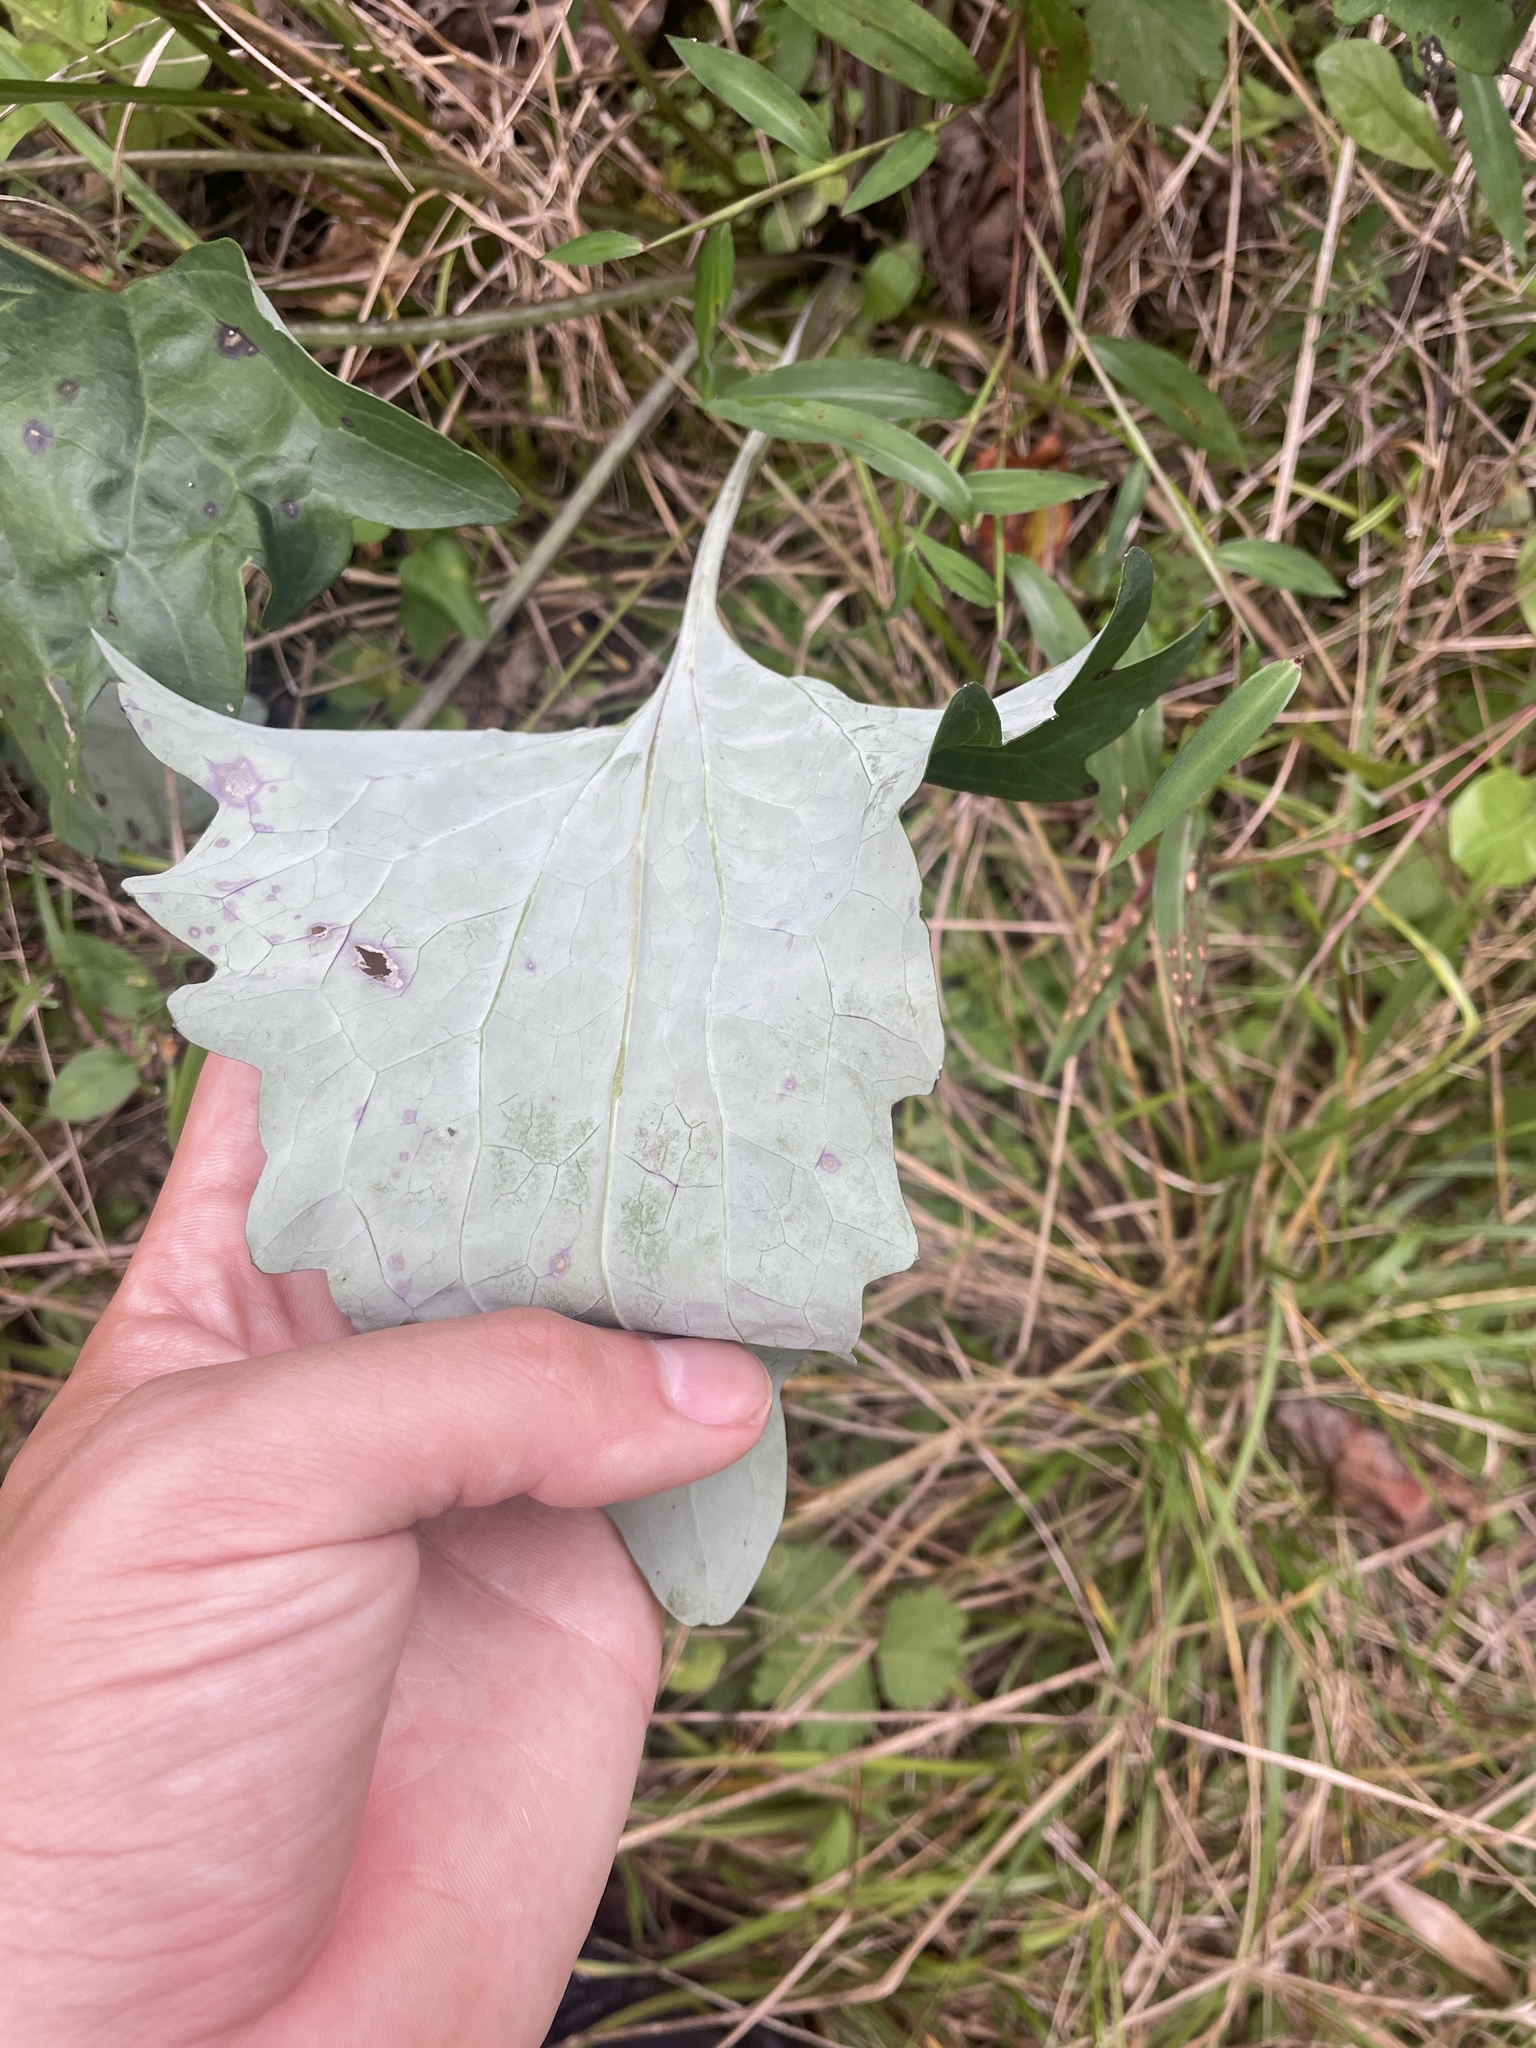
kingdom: Plantae
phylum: Tracheophyta
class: Magnoliopsida
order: Asterales
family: Asteraceae
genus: Arnoglossum
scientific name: Arnoglossum atriplicifolium
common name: Pale indian-plantain
